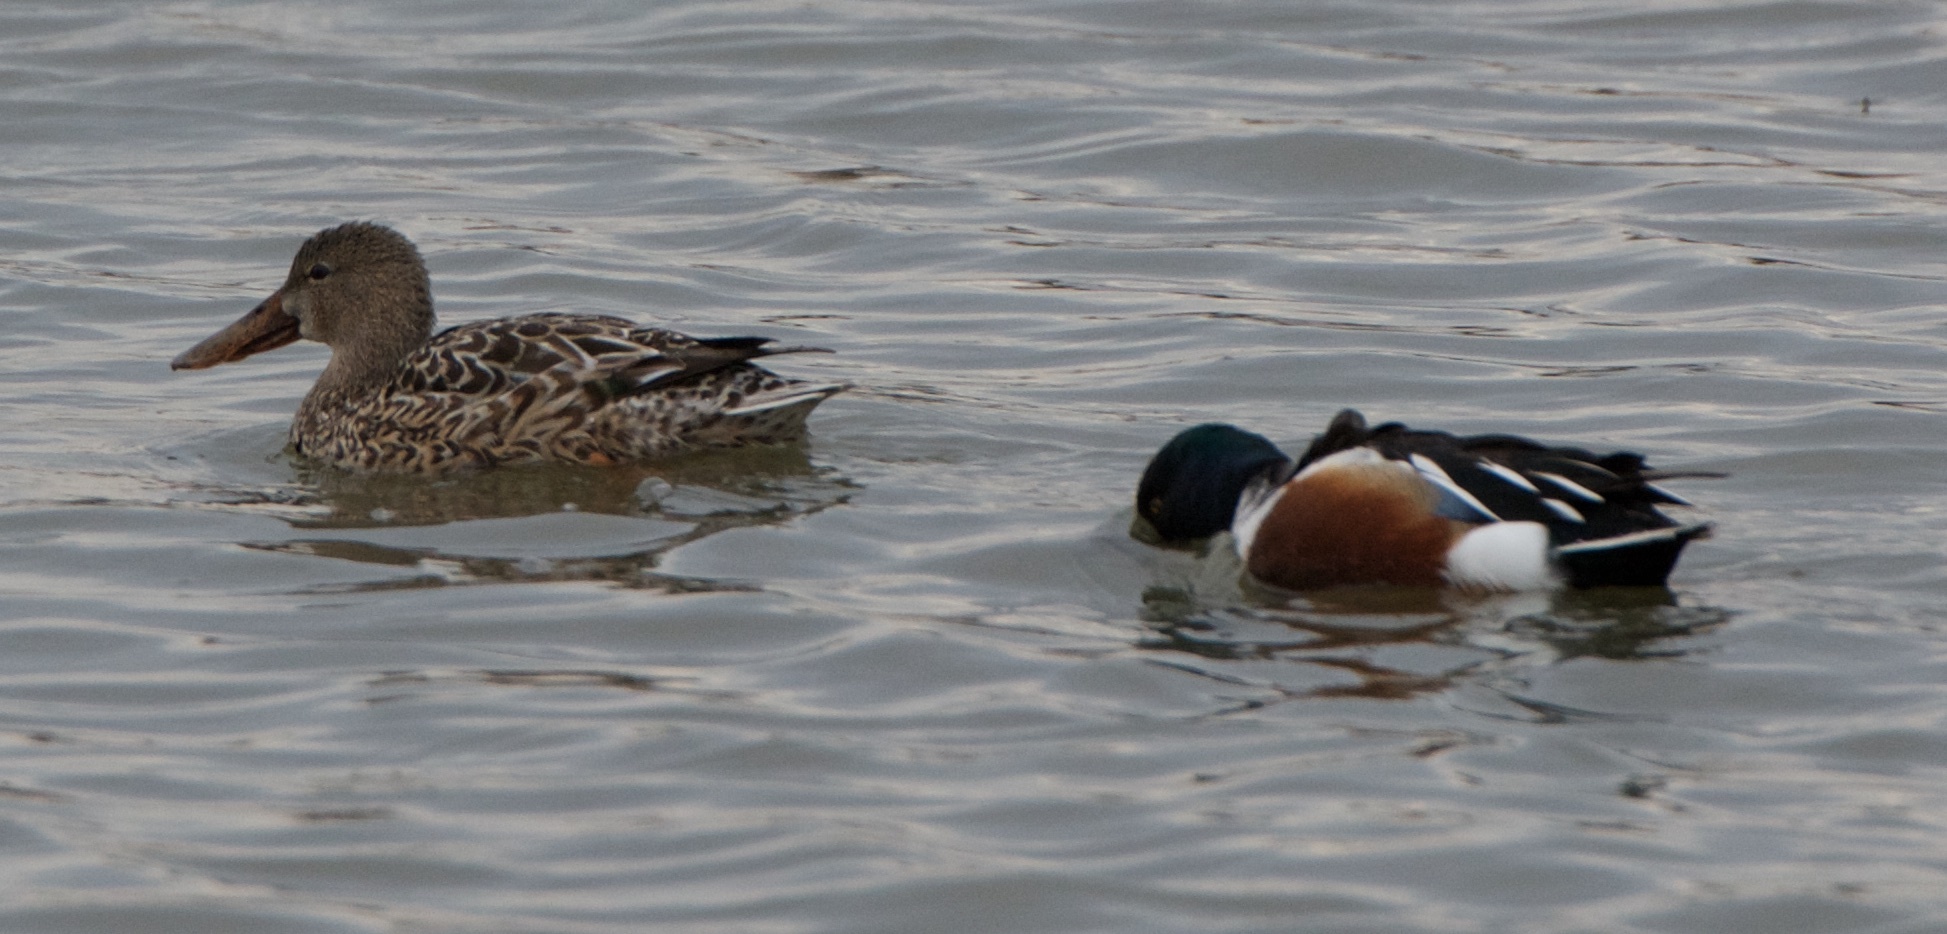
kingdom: Animalia
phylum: Chordata
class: Aves
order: Anseriformes
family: Anatidae
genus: Spatula
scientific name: Spatula clypeata
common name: Northern shoveler
